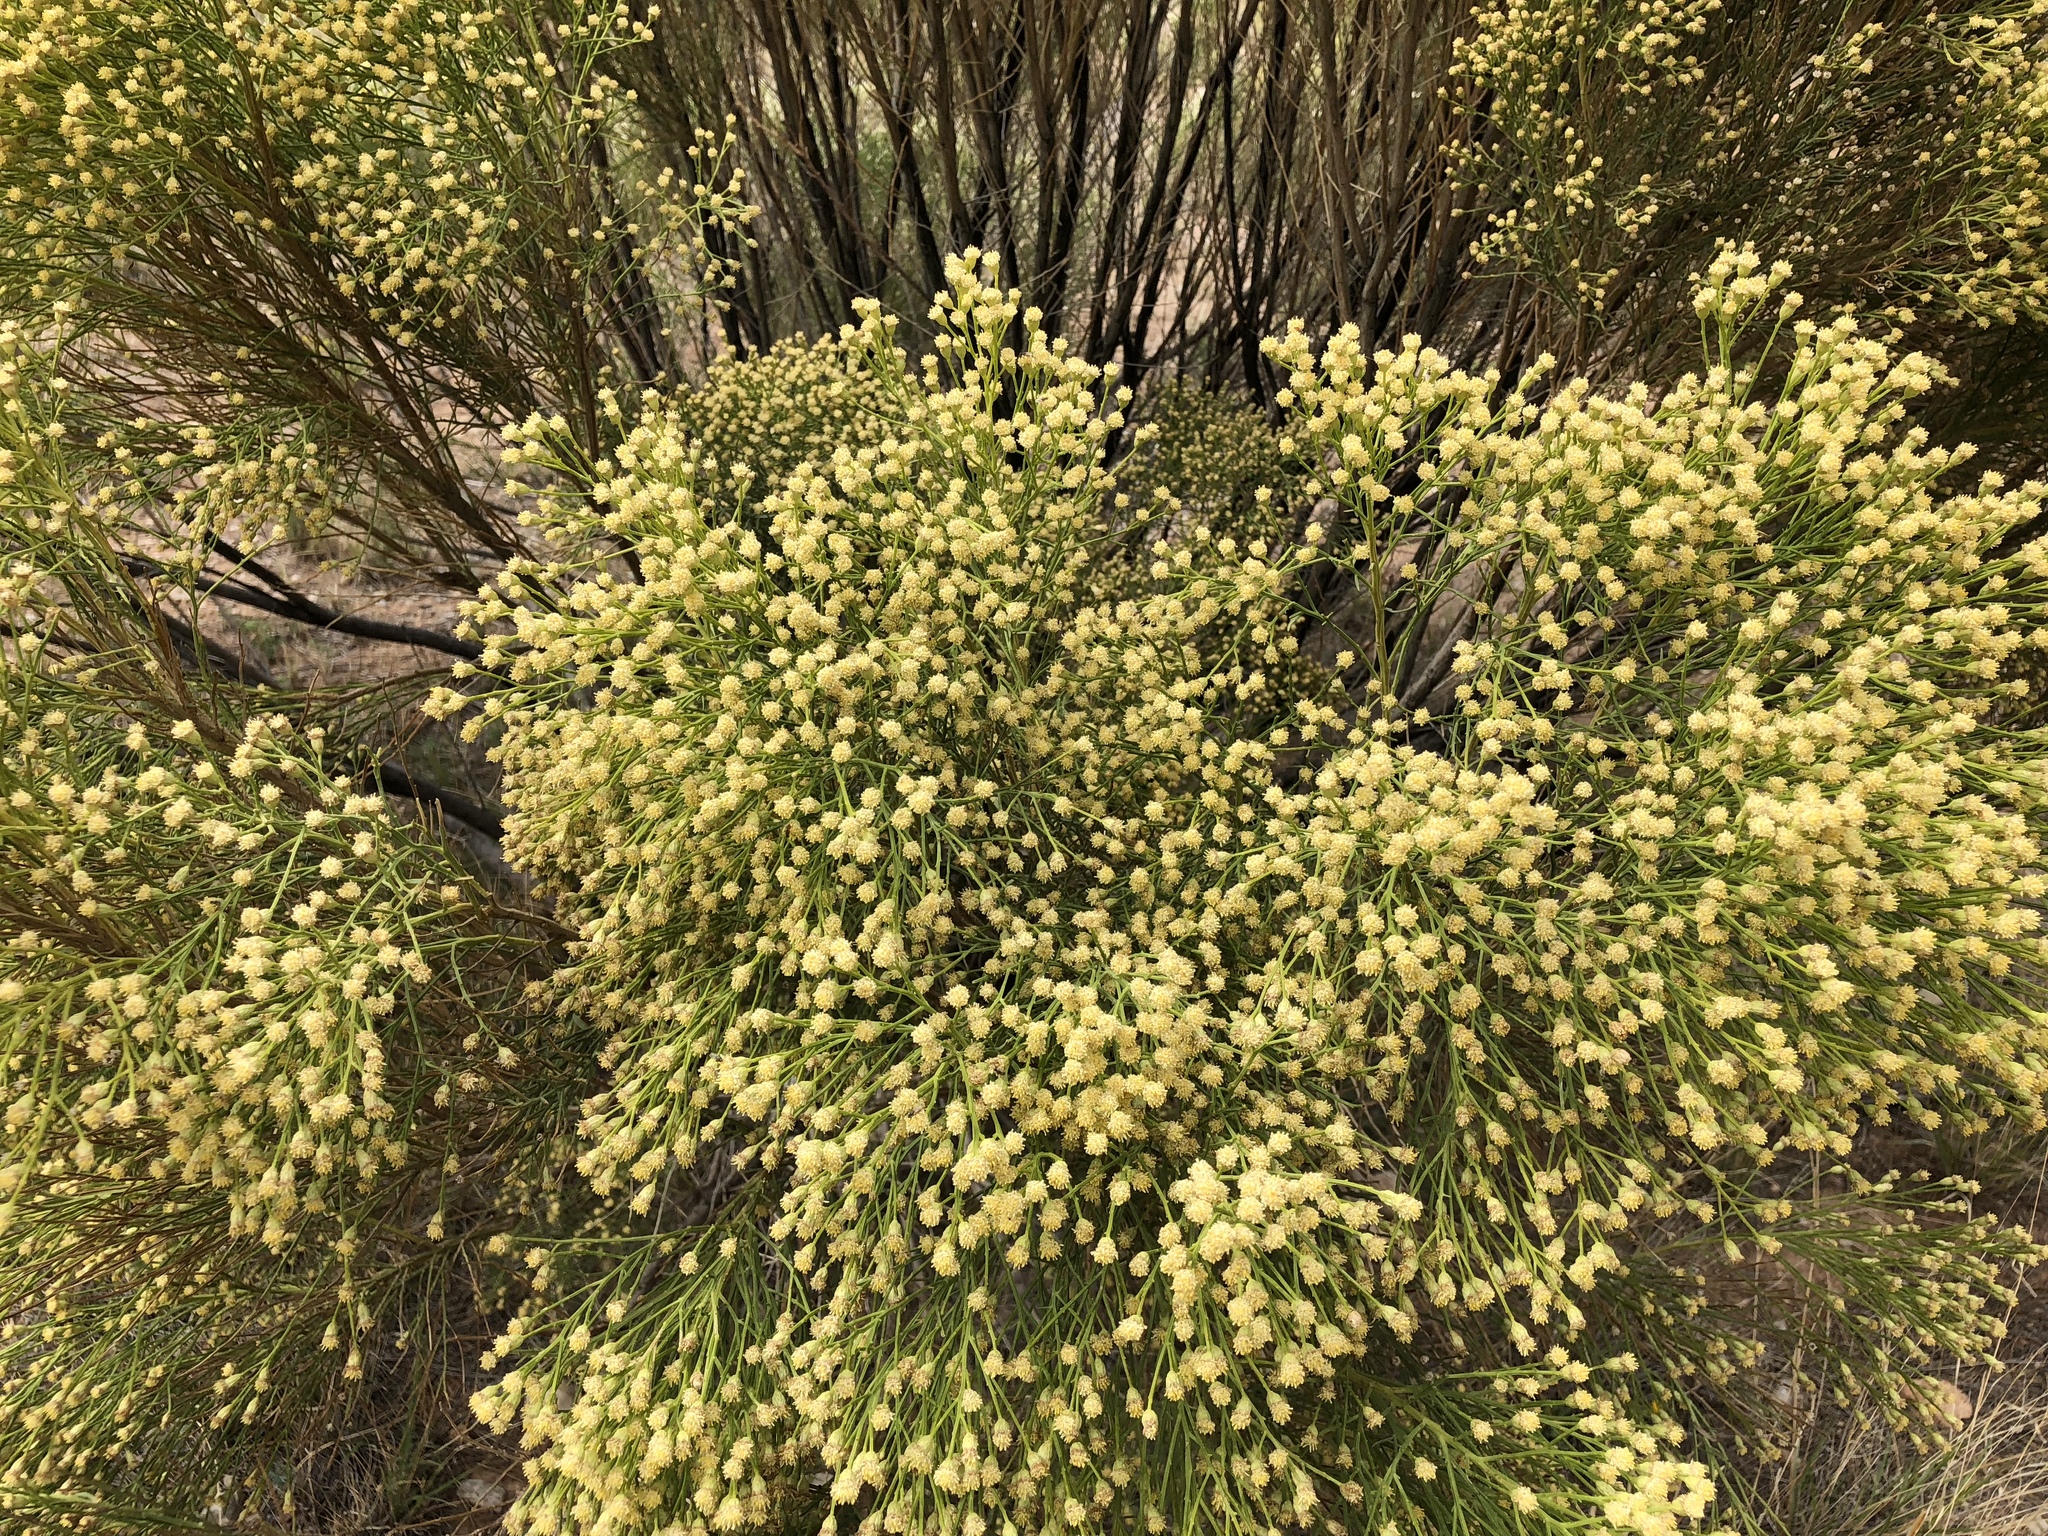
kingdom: Plantae
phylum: Tracheophyta
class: Magnoliopsida
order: Asterales
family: Asteraceae
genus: Baccharis
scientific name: Baccharis sarothroides
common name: Desert-broom
